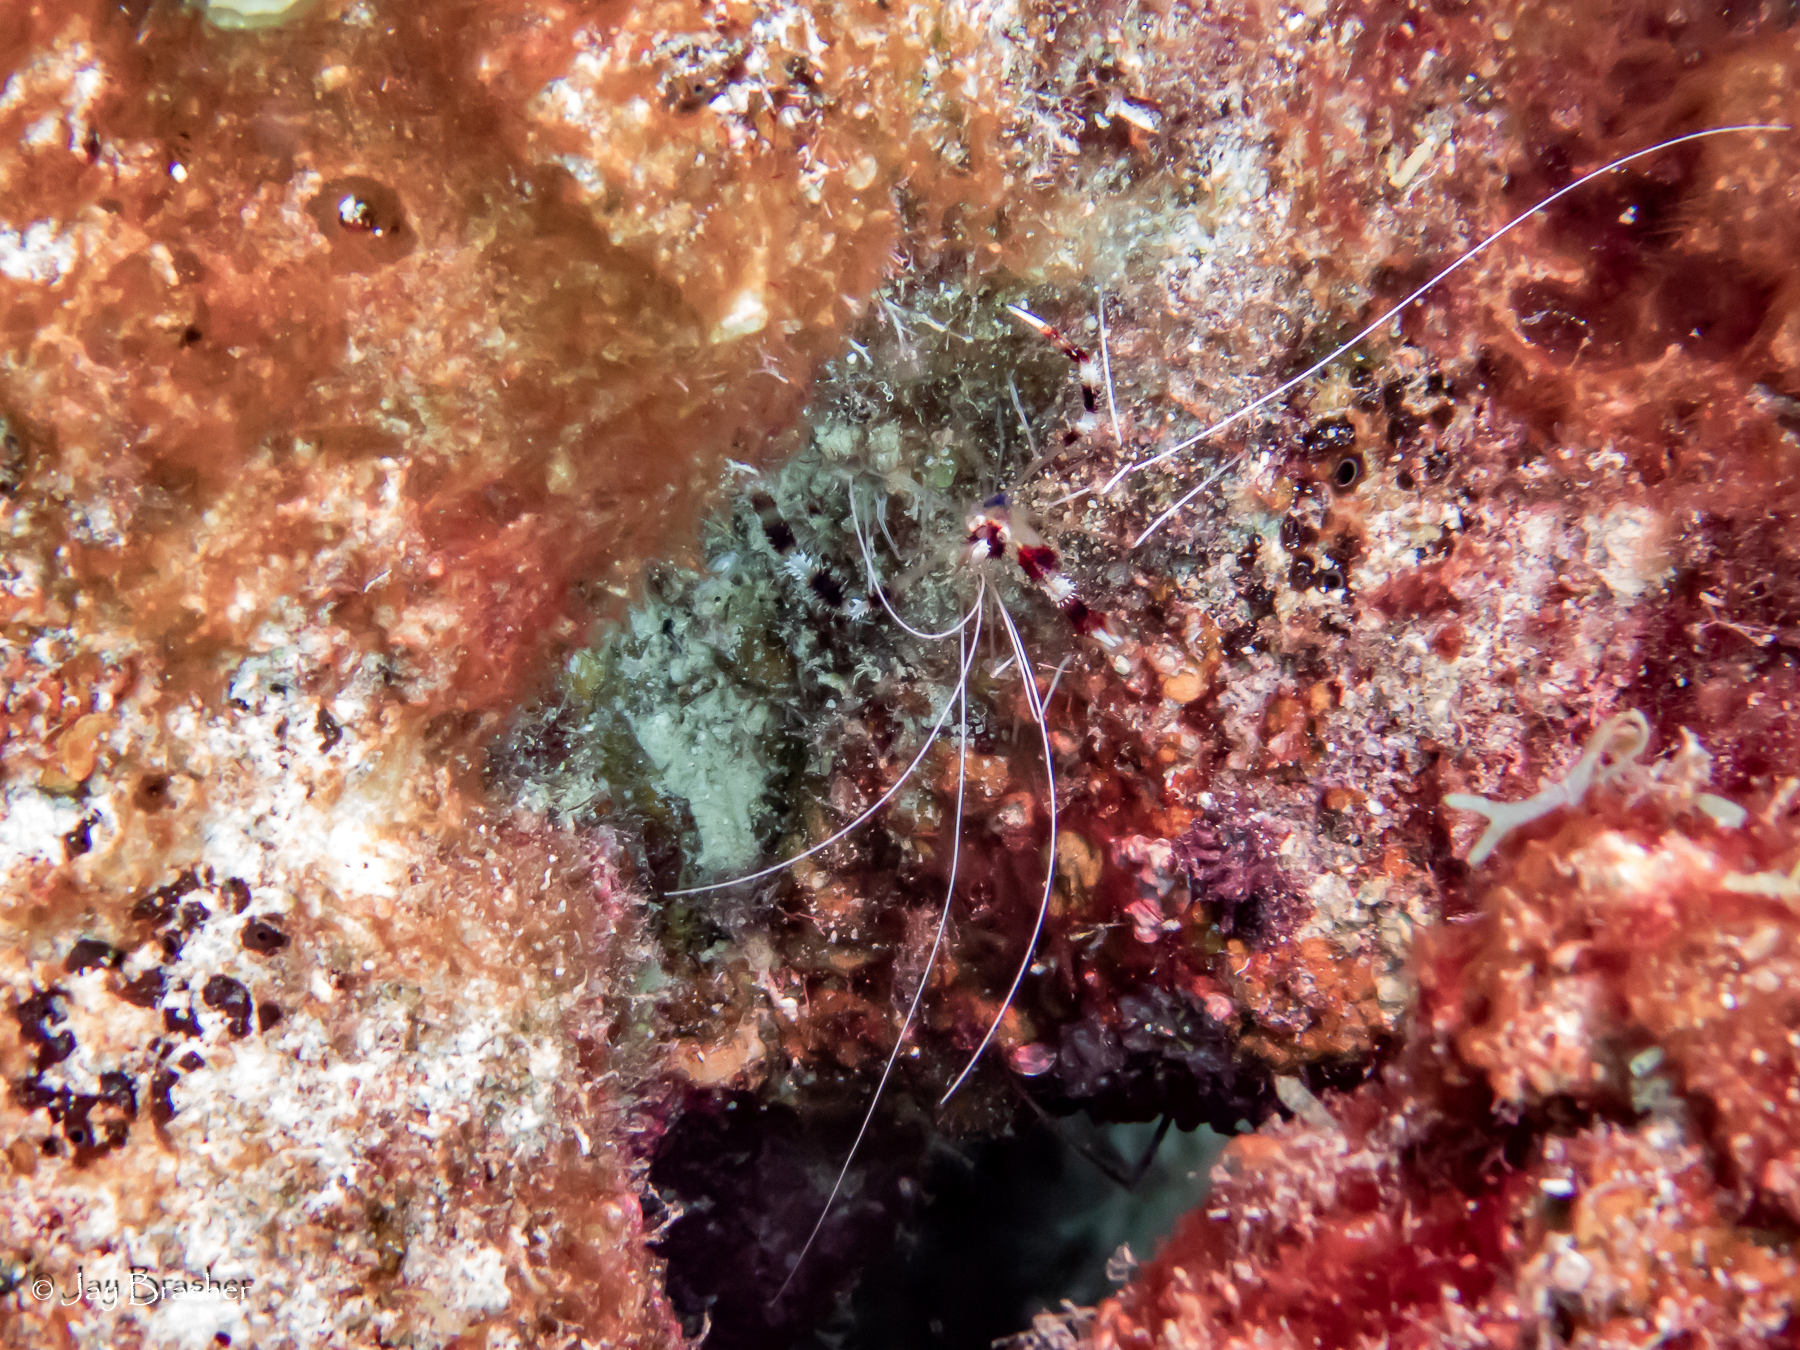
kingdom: Animalia
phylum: Arthropoda
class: Malacostraca
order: Decapoda
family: Stenopodidae
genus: Stenopus
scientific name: Stenopus hispidus
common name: Banded coral shrimp
